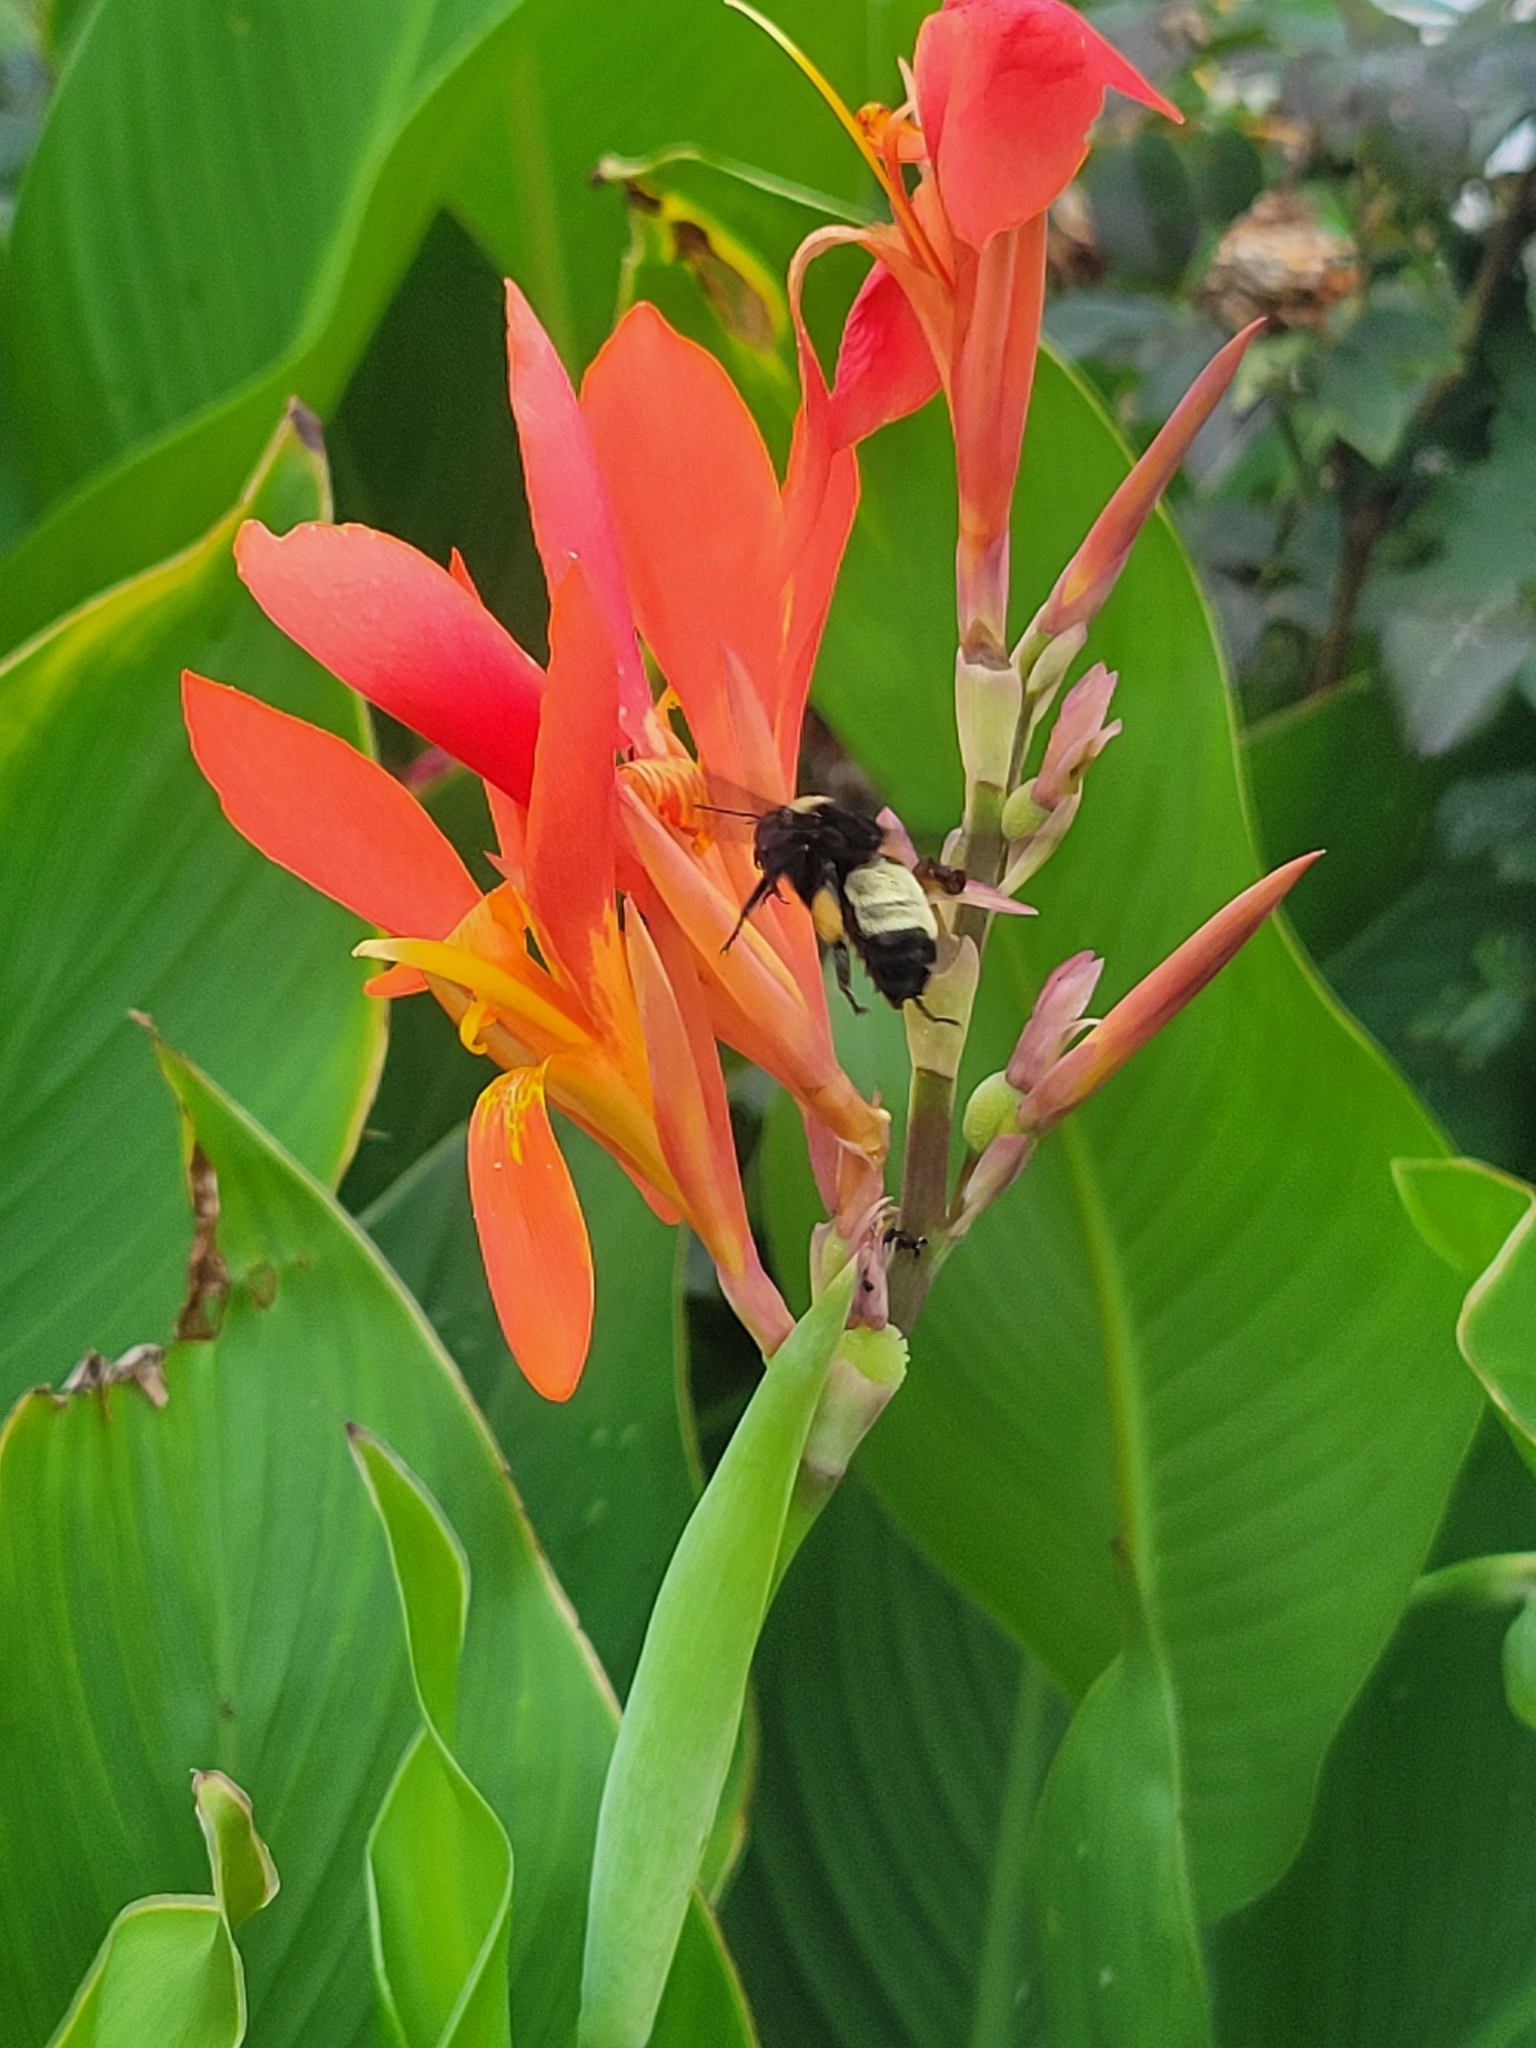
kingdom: Animalia
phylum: Arthropoda
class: Insecta
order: Hymenoptera
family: Apidae
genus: Bombus
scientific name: Bombus pensylvanicus
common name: Bumble bee
